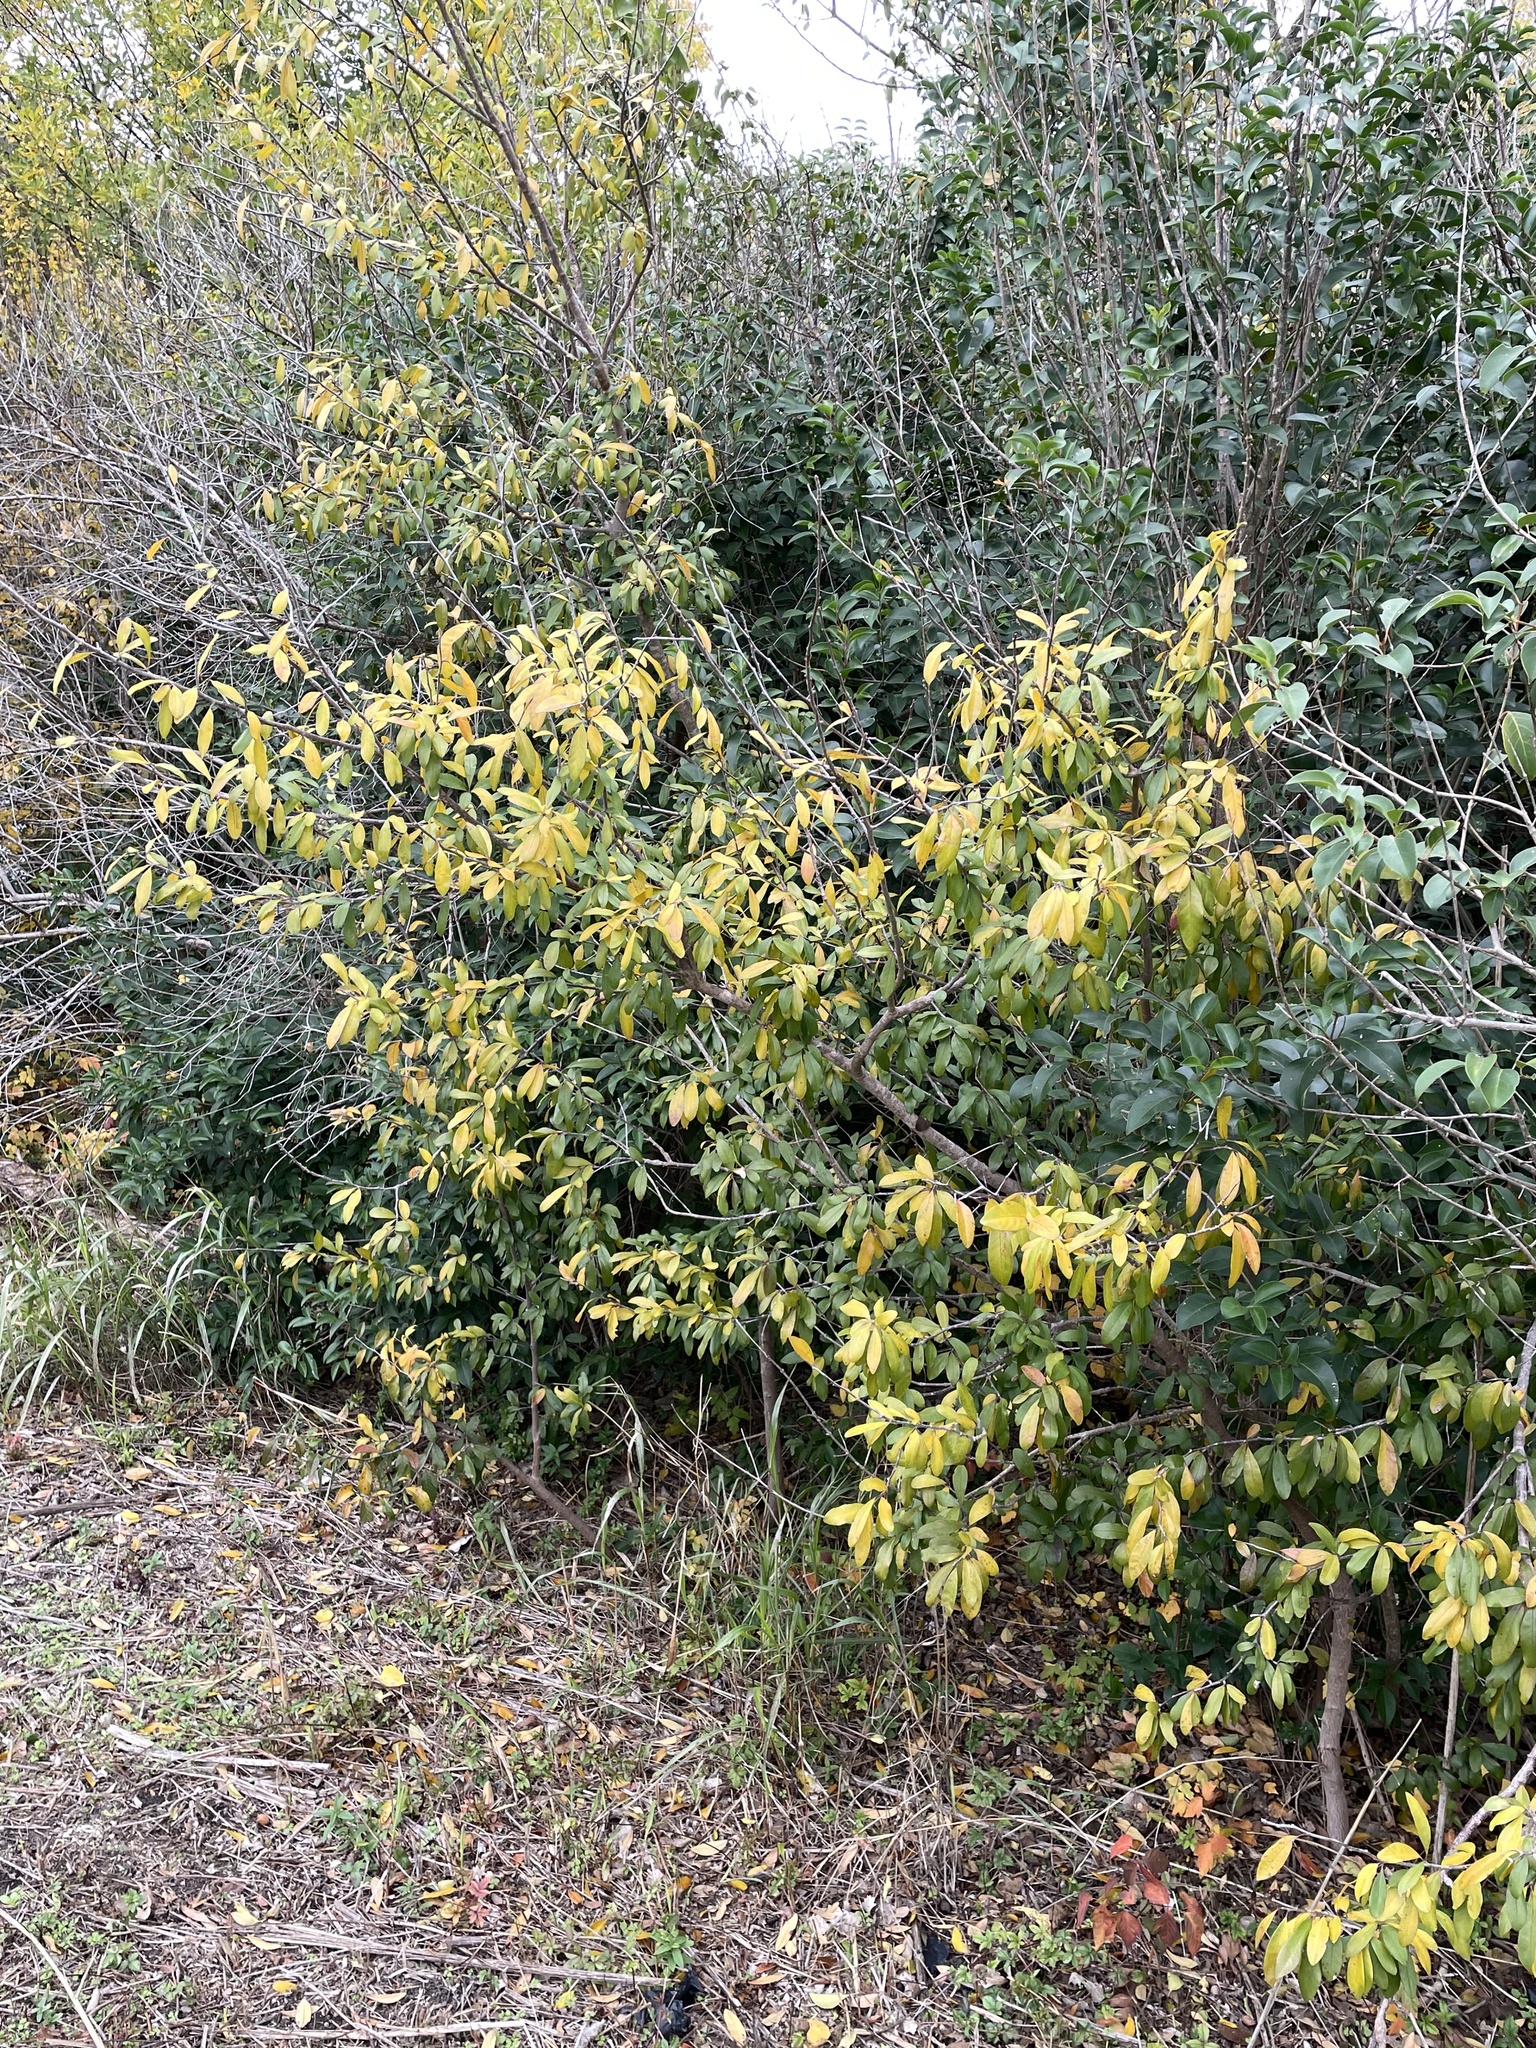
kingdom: Plantae
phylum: Tracheophyta
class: Magnoliopsida
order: Ericales
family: Sapotaceae
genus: Sideroxylon
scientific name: Sideroxylon lanuginosum
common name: Chittamwood
